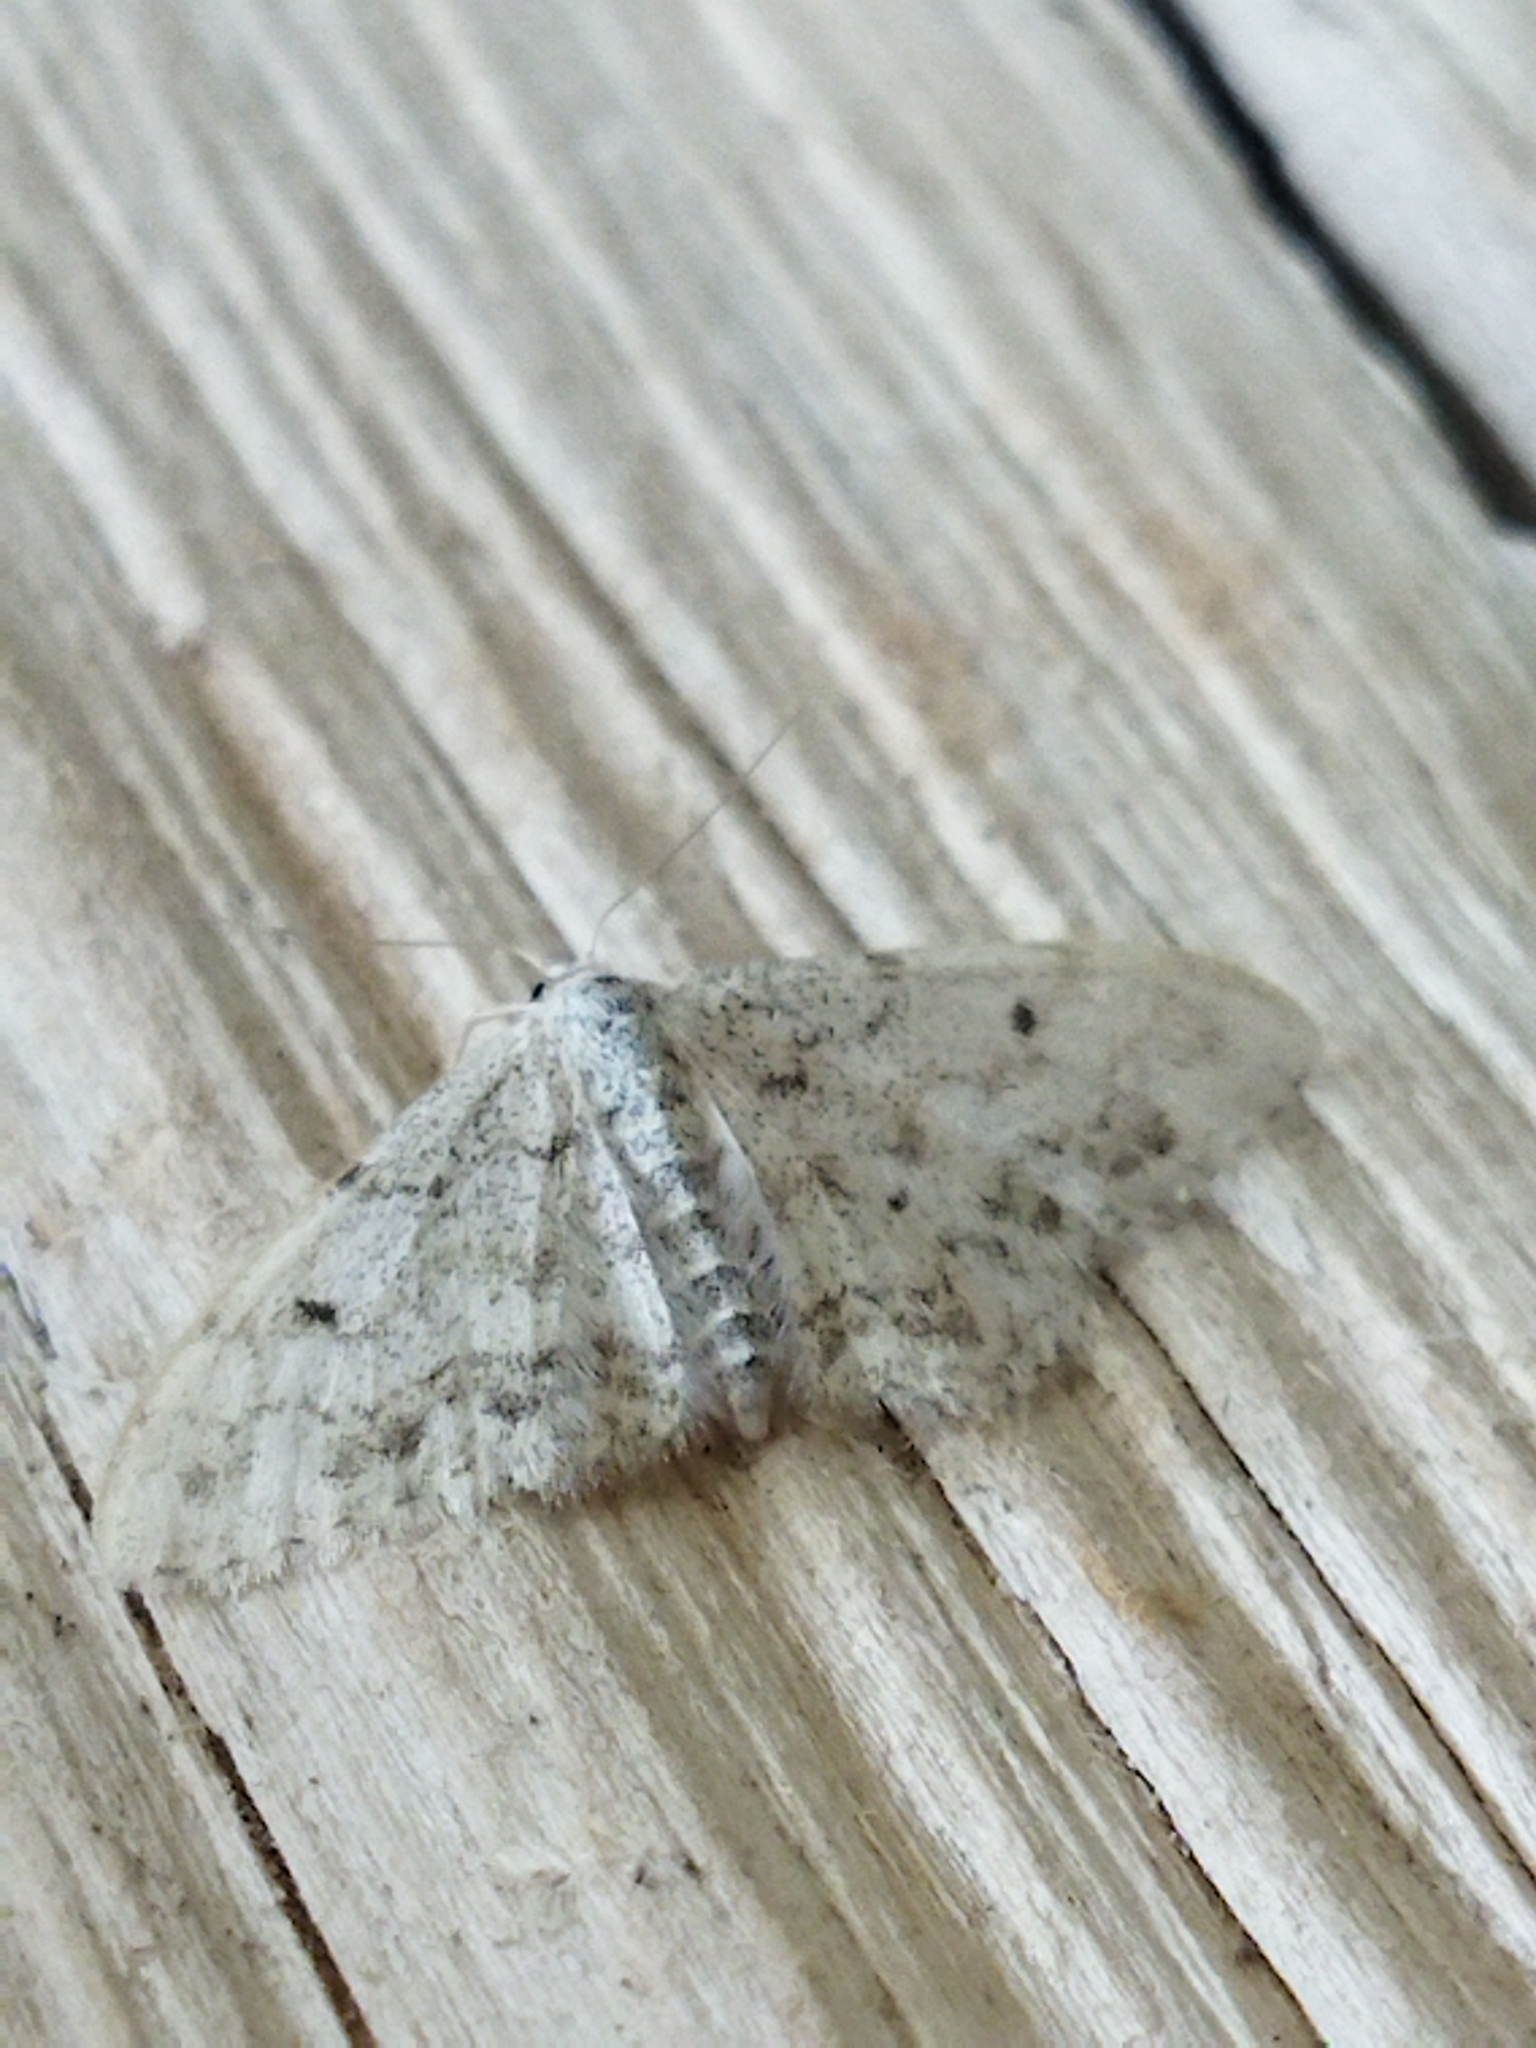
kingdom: Animalia
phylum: Arthropoda
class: Insecta
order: Lepidoptera
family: Geometridae
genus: Idaea
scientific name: Idaea camparia
